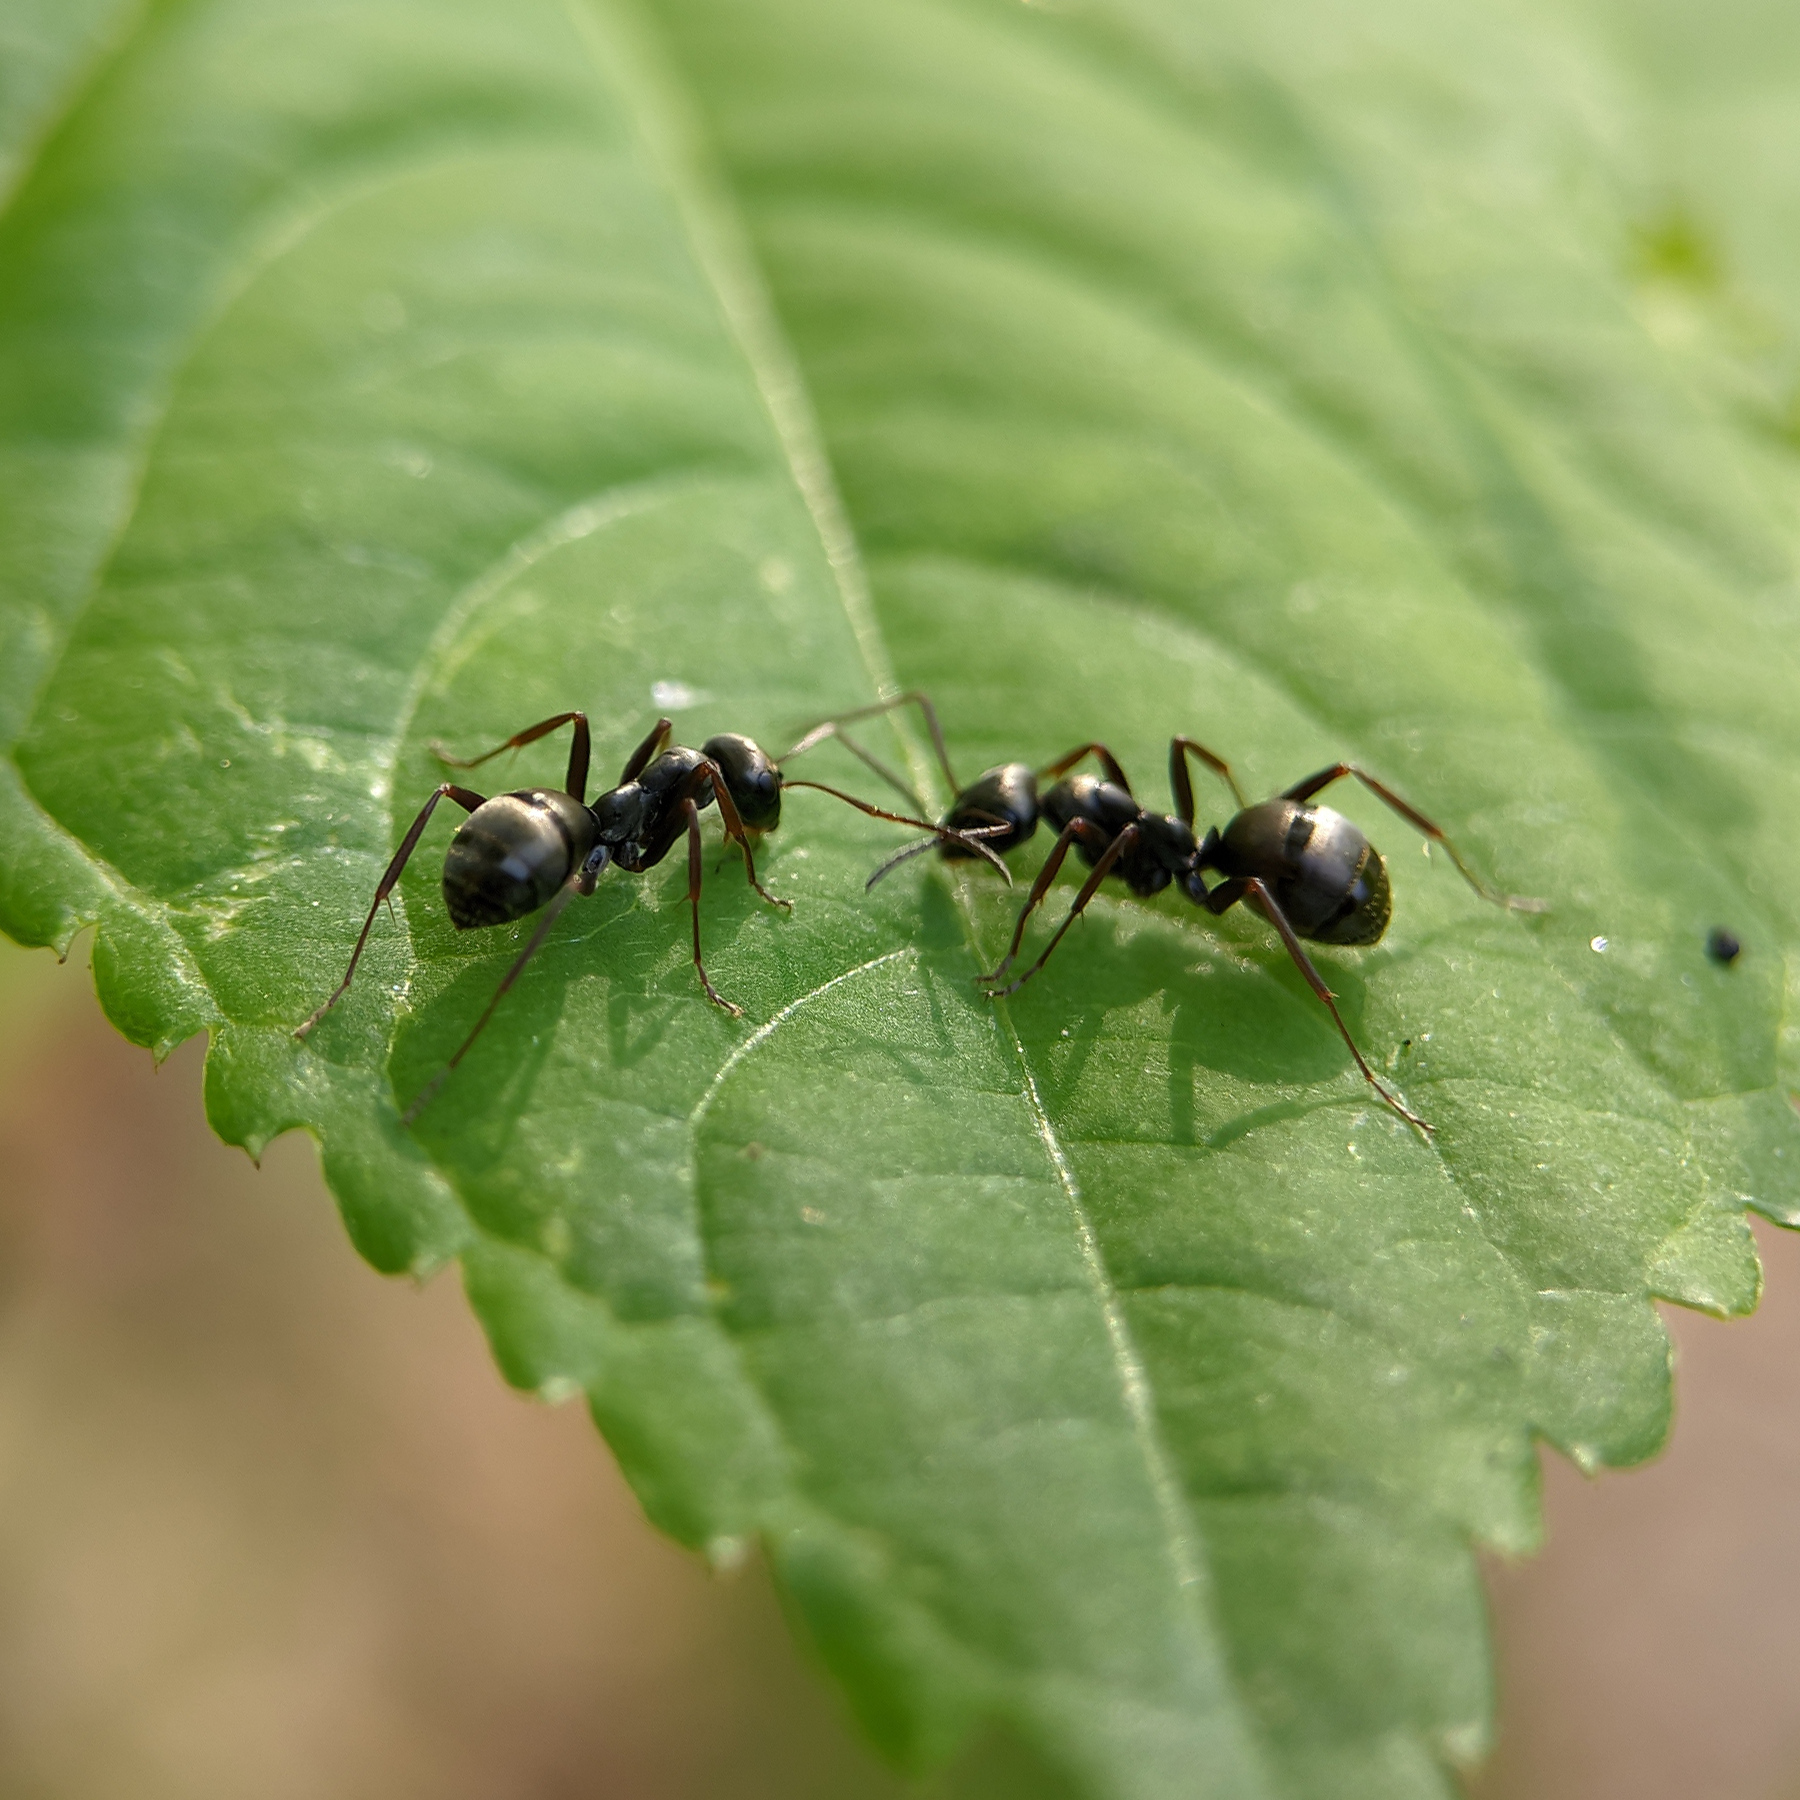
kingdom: Animalia
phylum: Arthropoda
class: Insecta
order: Hymenoptera
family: Formicidae
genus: Formica
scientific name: Formica fusca
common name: Silky ant
